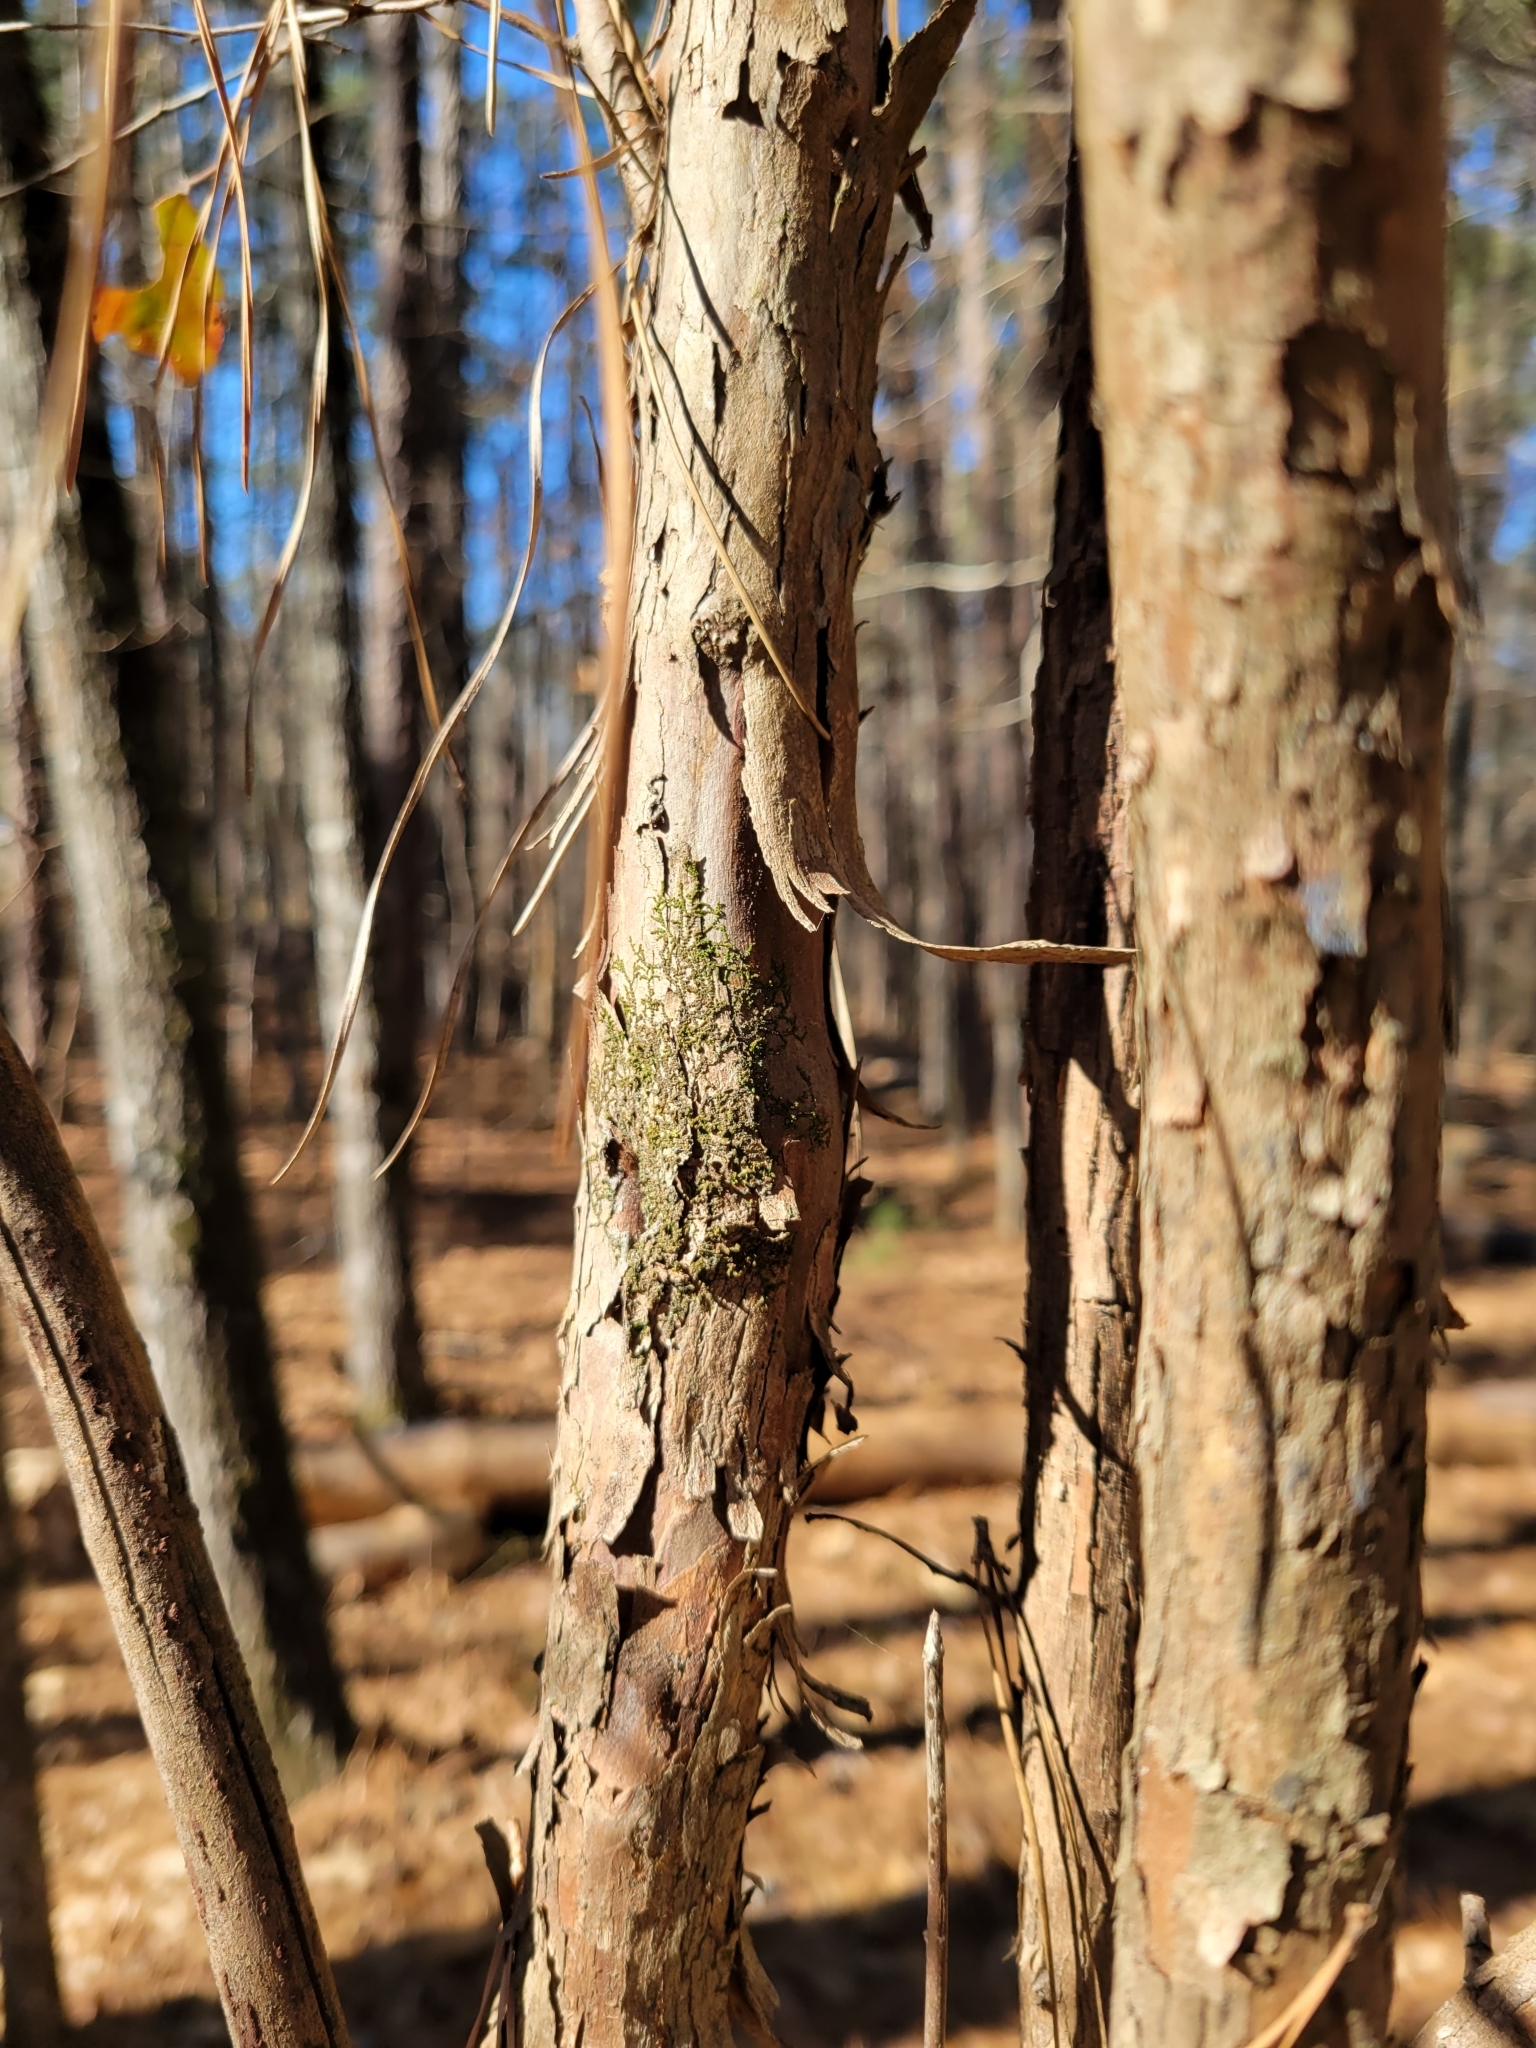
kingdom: Plantae
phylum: Tracheophyta
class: Magnoliopsida
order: Ericales
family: Ericaceae
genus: Vaccinium
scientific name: Vaccinium arboreum
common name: Farkleberry
